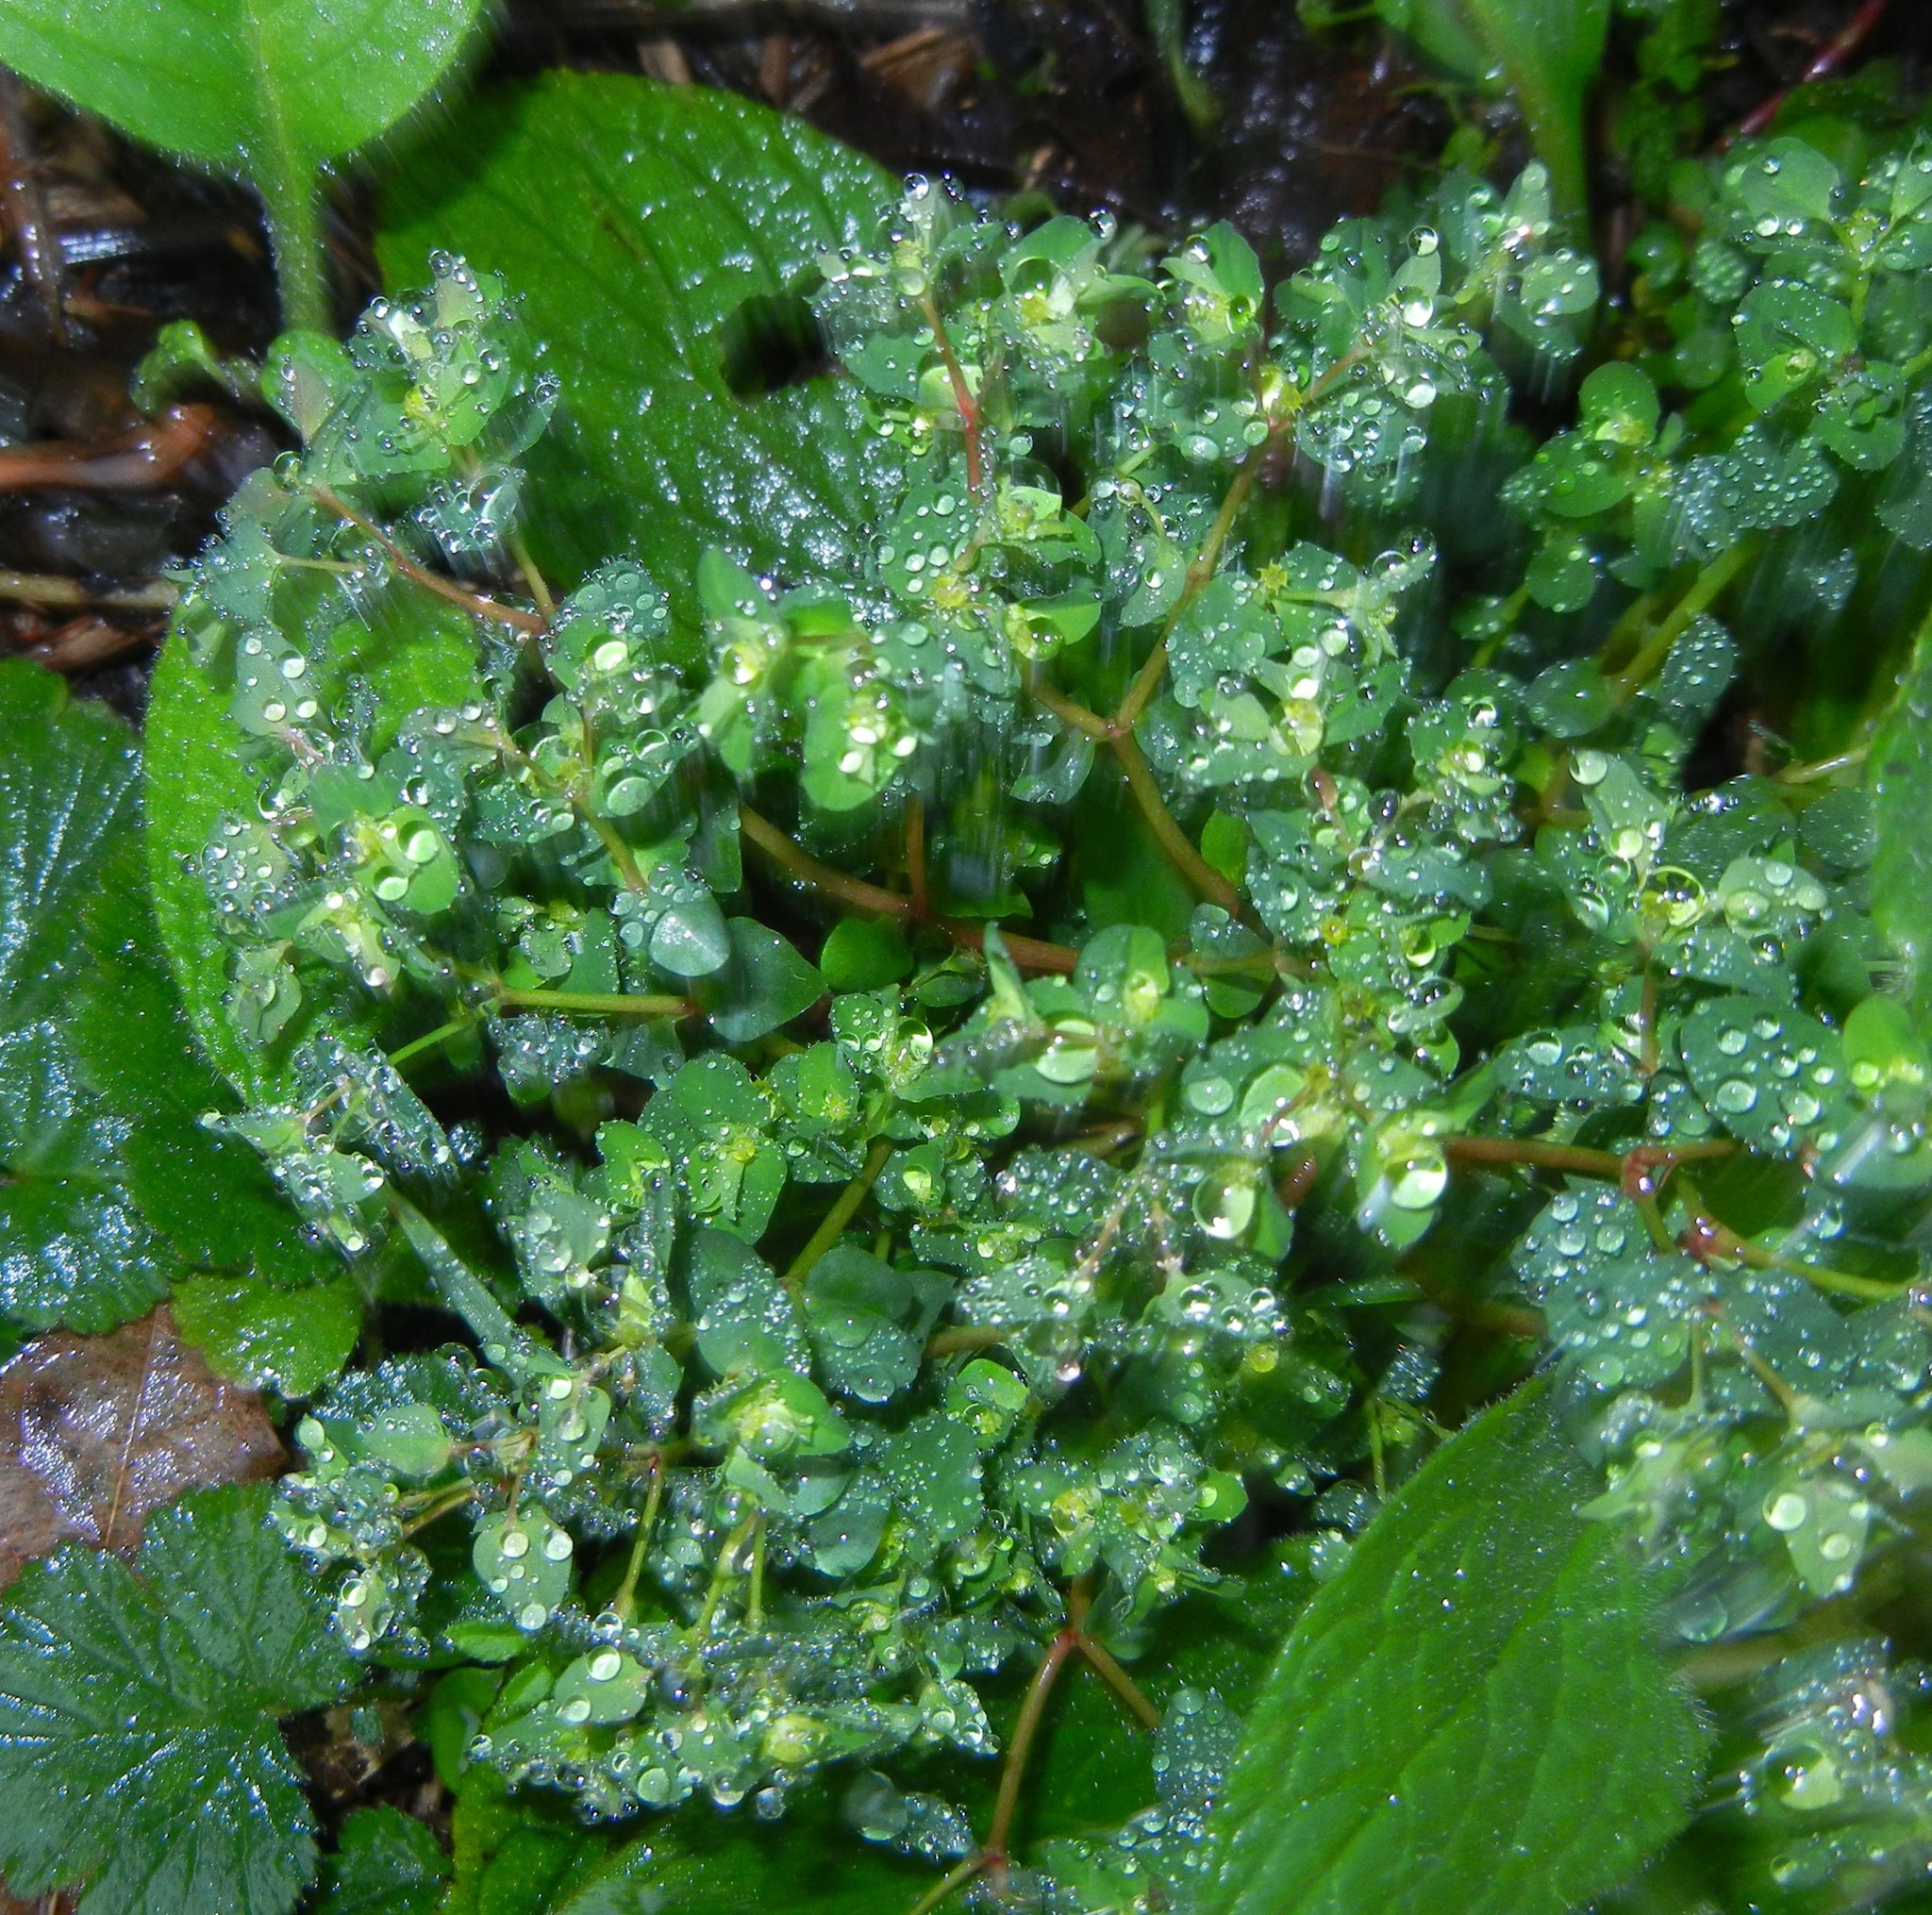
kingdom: Plantae
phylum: Tracheophyta
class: Magnoliopsida
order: Malpighiales
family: Euphorbiaceae
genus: Euphorbia
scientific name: Euphorbia peplus
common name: Petty spurge
